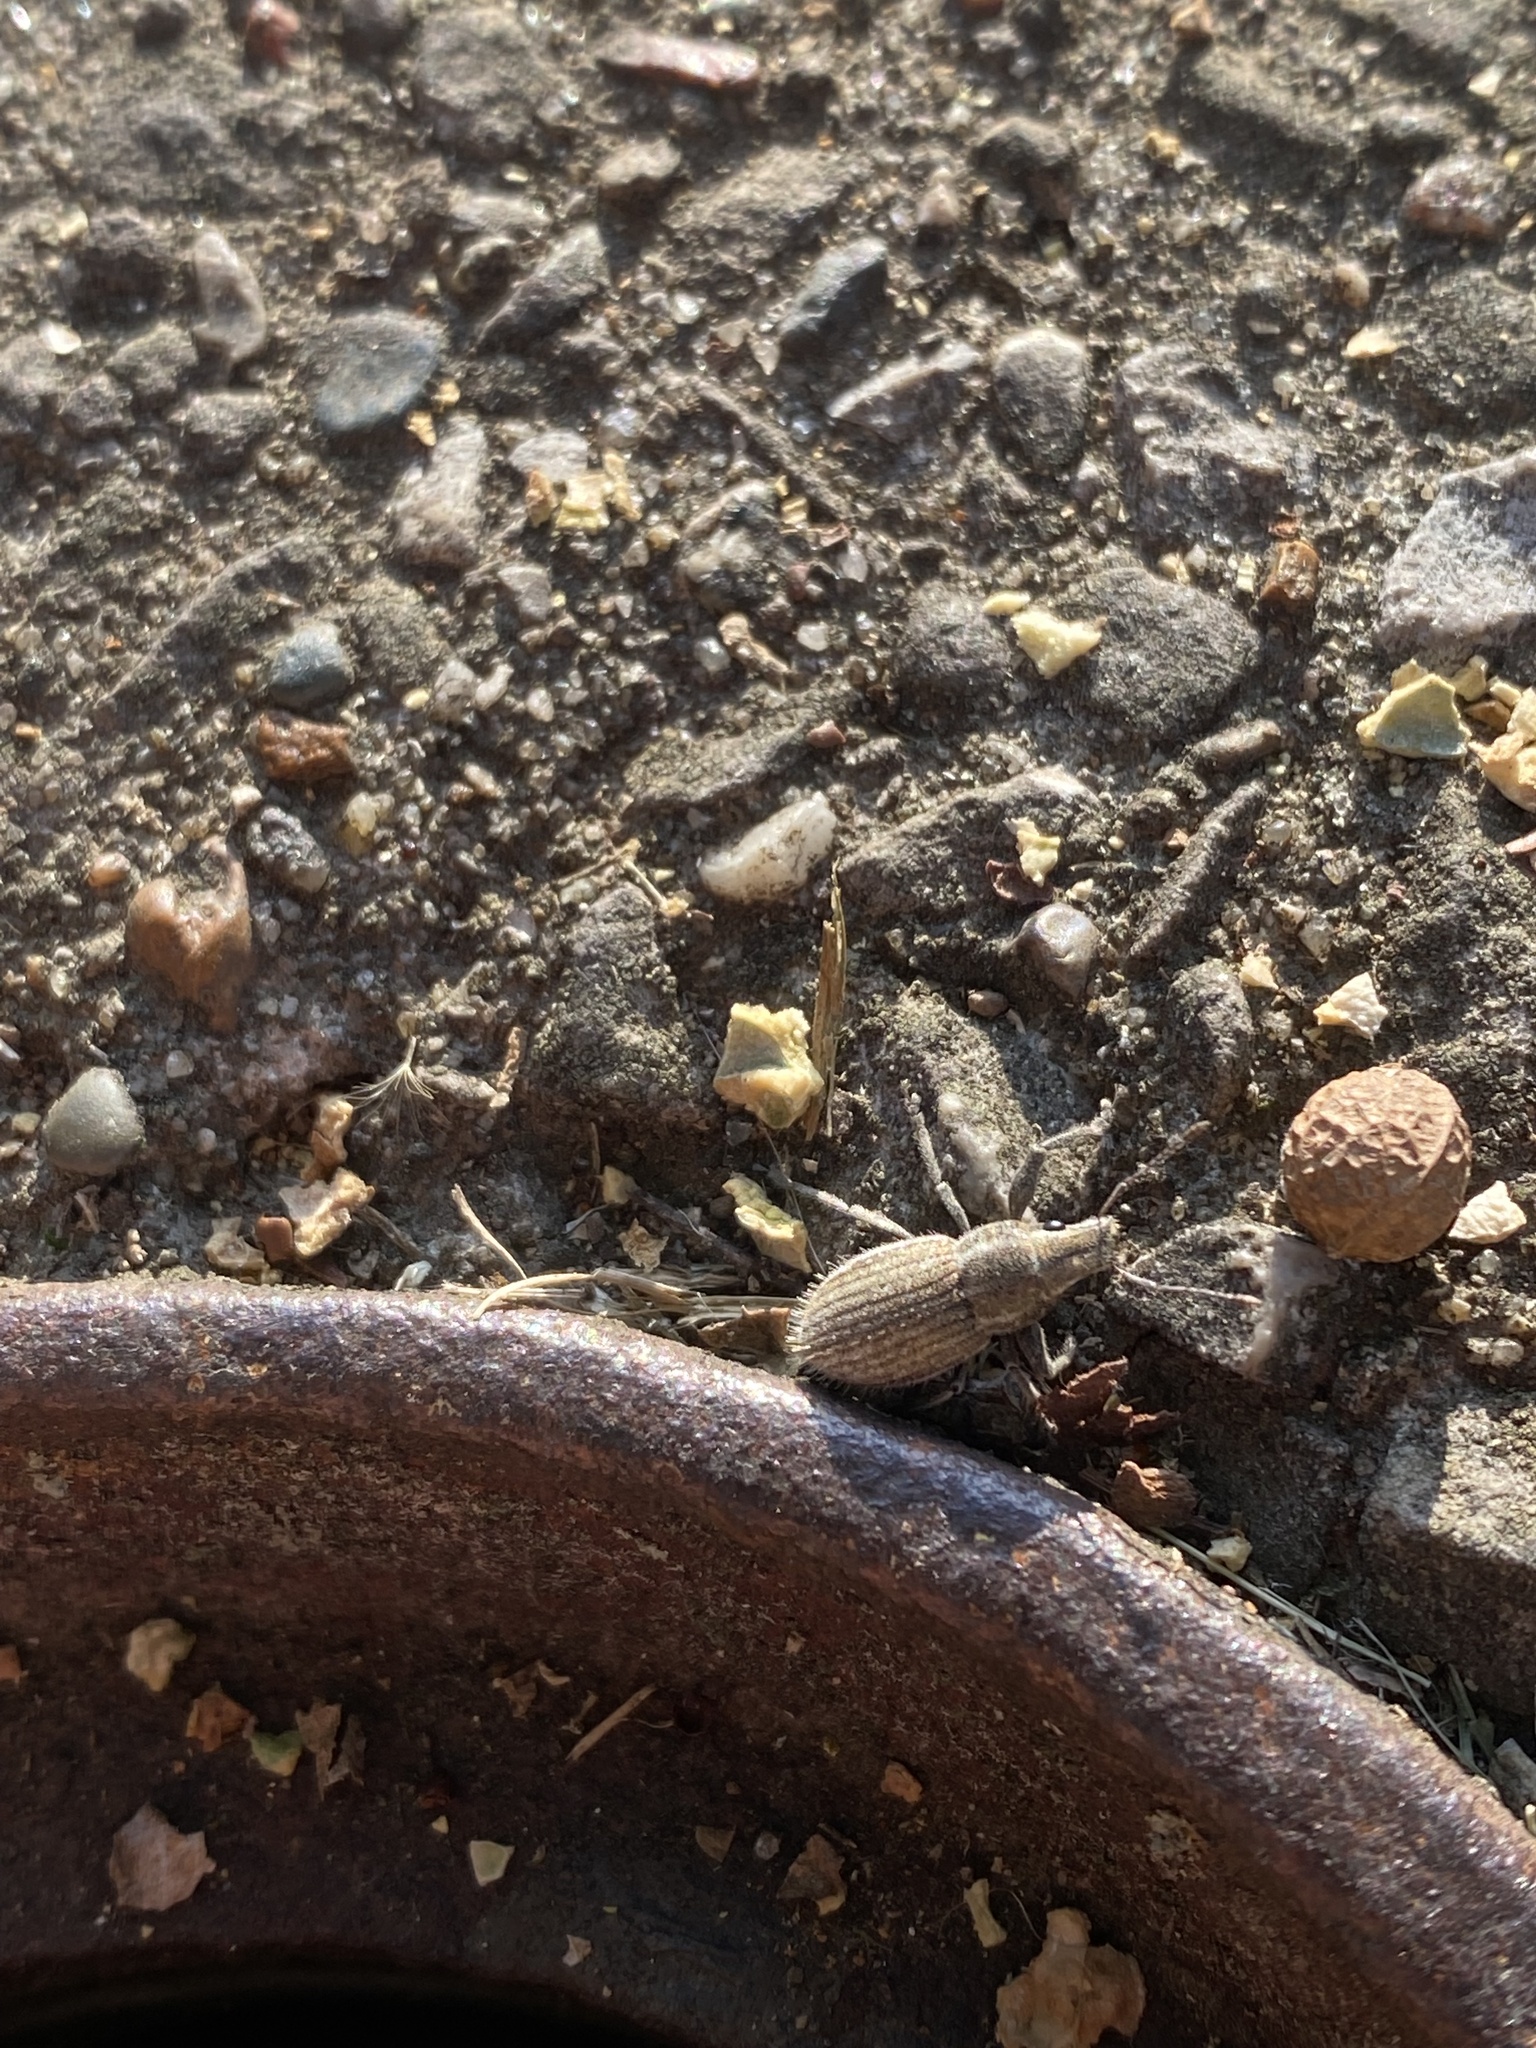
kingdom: Animalia
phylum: Arthropoda
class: Insecta
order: Coleoptera
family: Curculionidae
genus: Naupactus
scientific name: Naupactus leucoloma
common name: Whitefringed beetle
